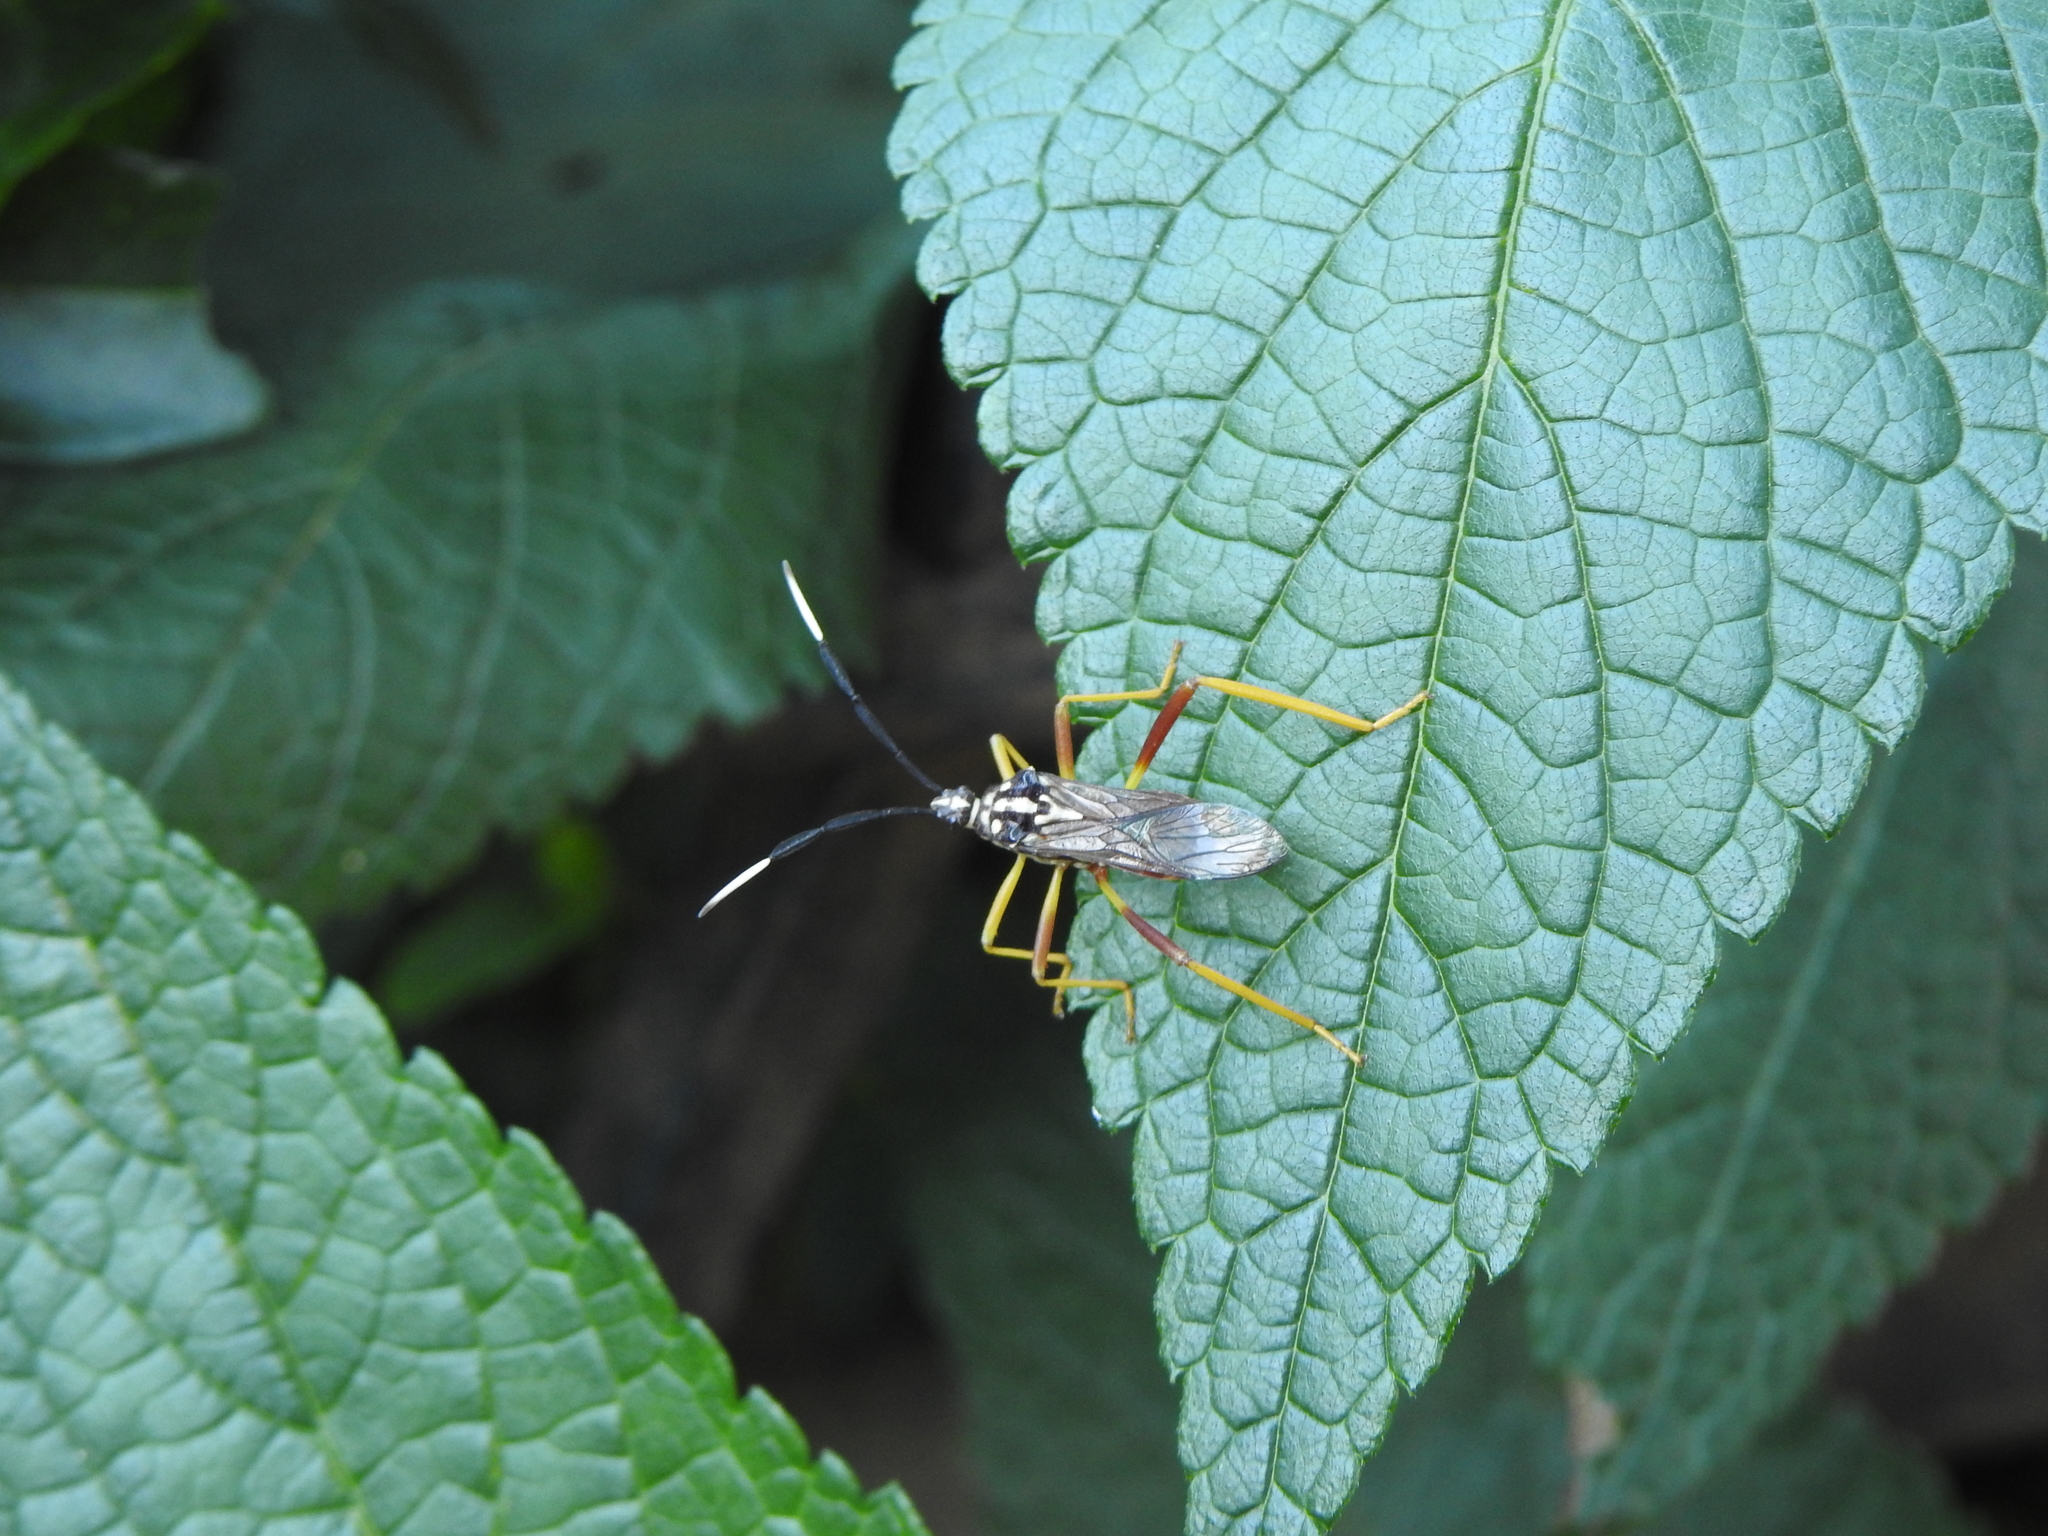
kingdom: Animalia
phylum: Arthropoda
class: Insecta
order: Hemiptera
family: Coreidae
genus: Holhymenia
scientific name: Holhymenia histrio
